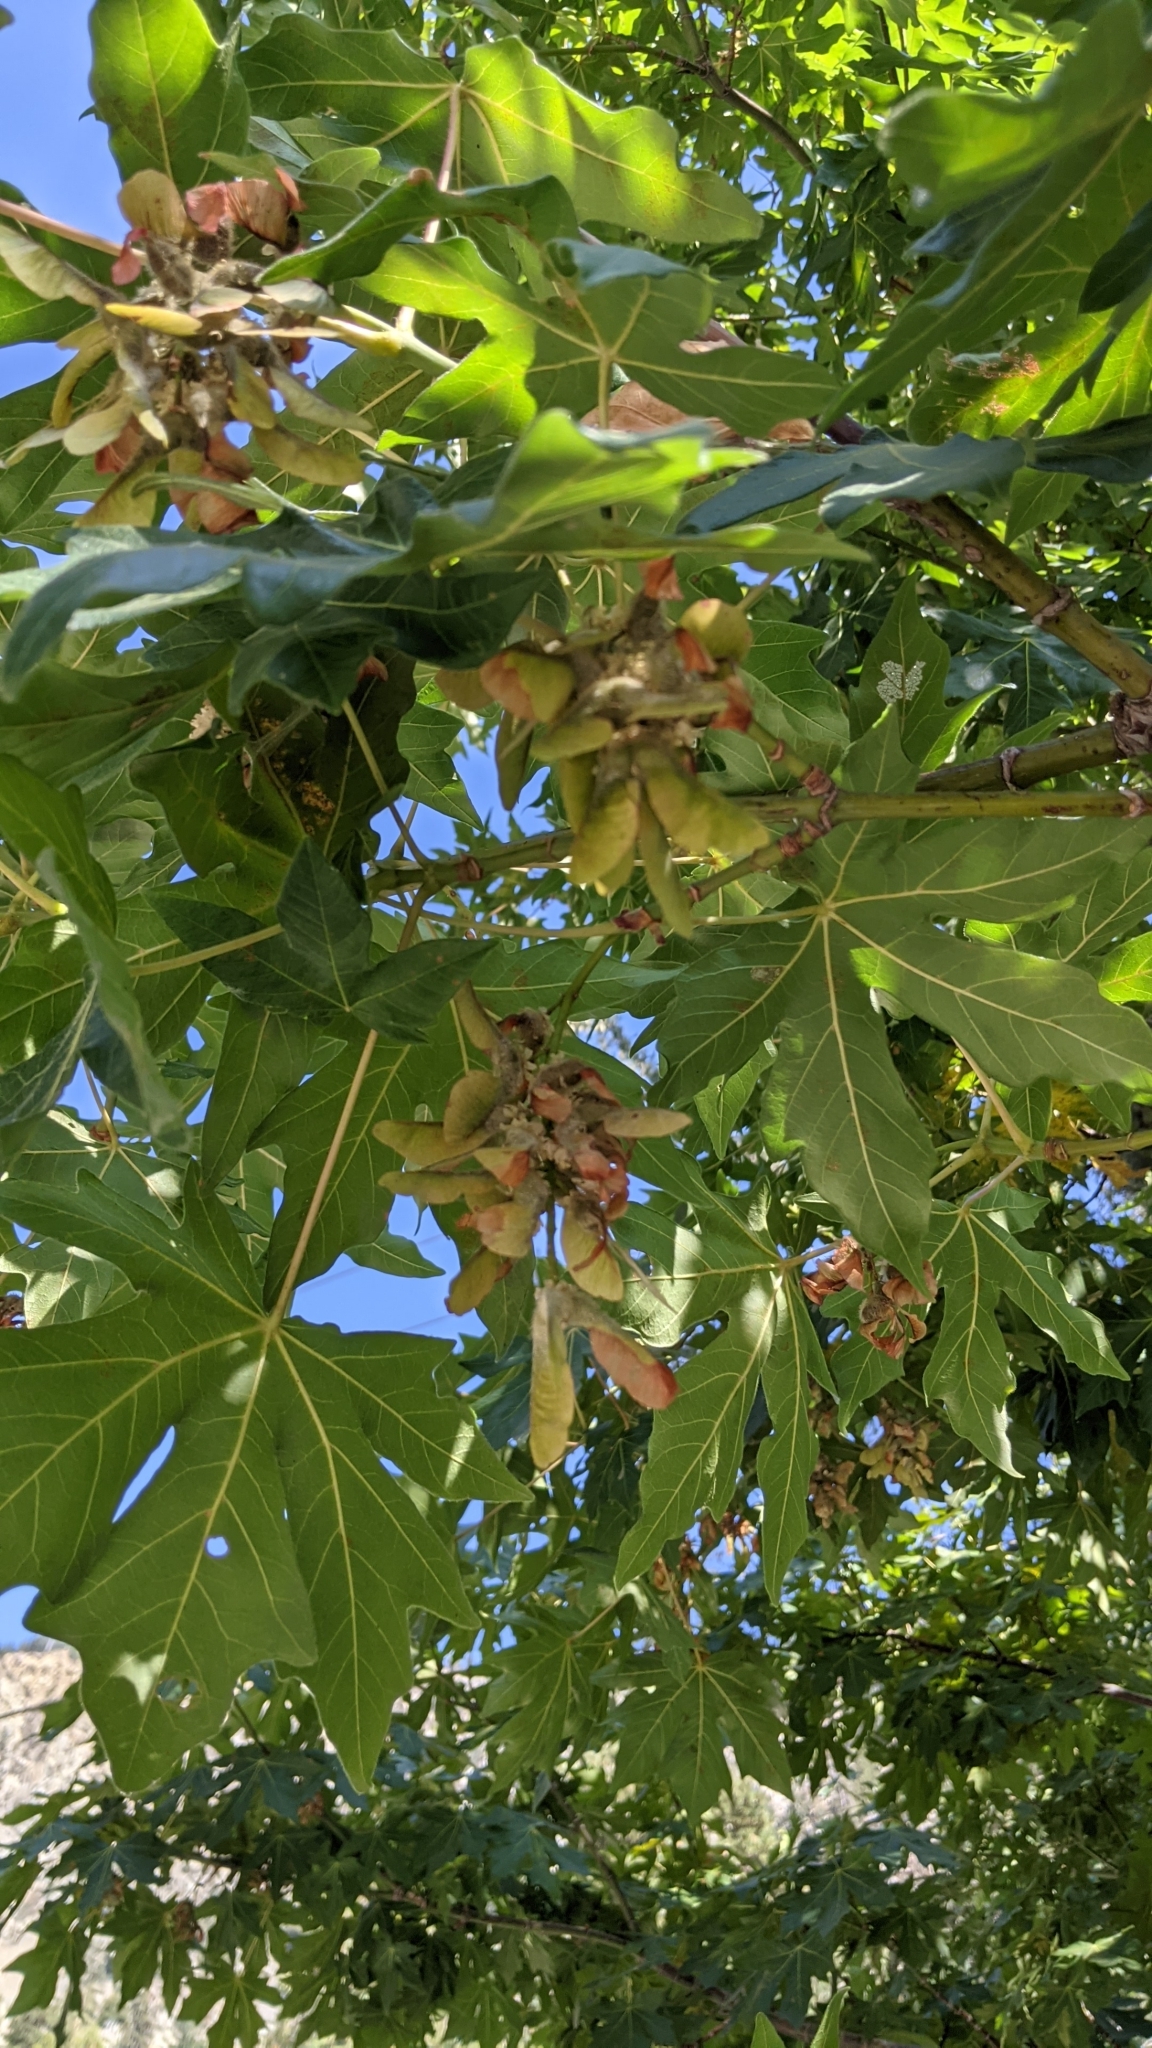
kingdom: Plantae
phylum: Tracheophyta
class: Magnoliopsida
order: Sapindales
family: Sapindaceae
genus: Acer
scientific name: Acer macrophyllum
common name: Oregon maple
